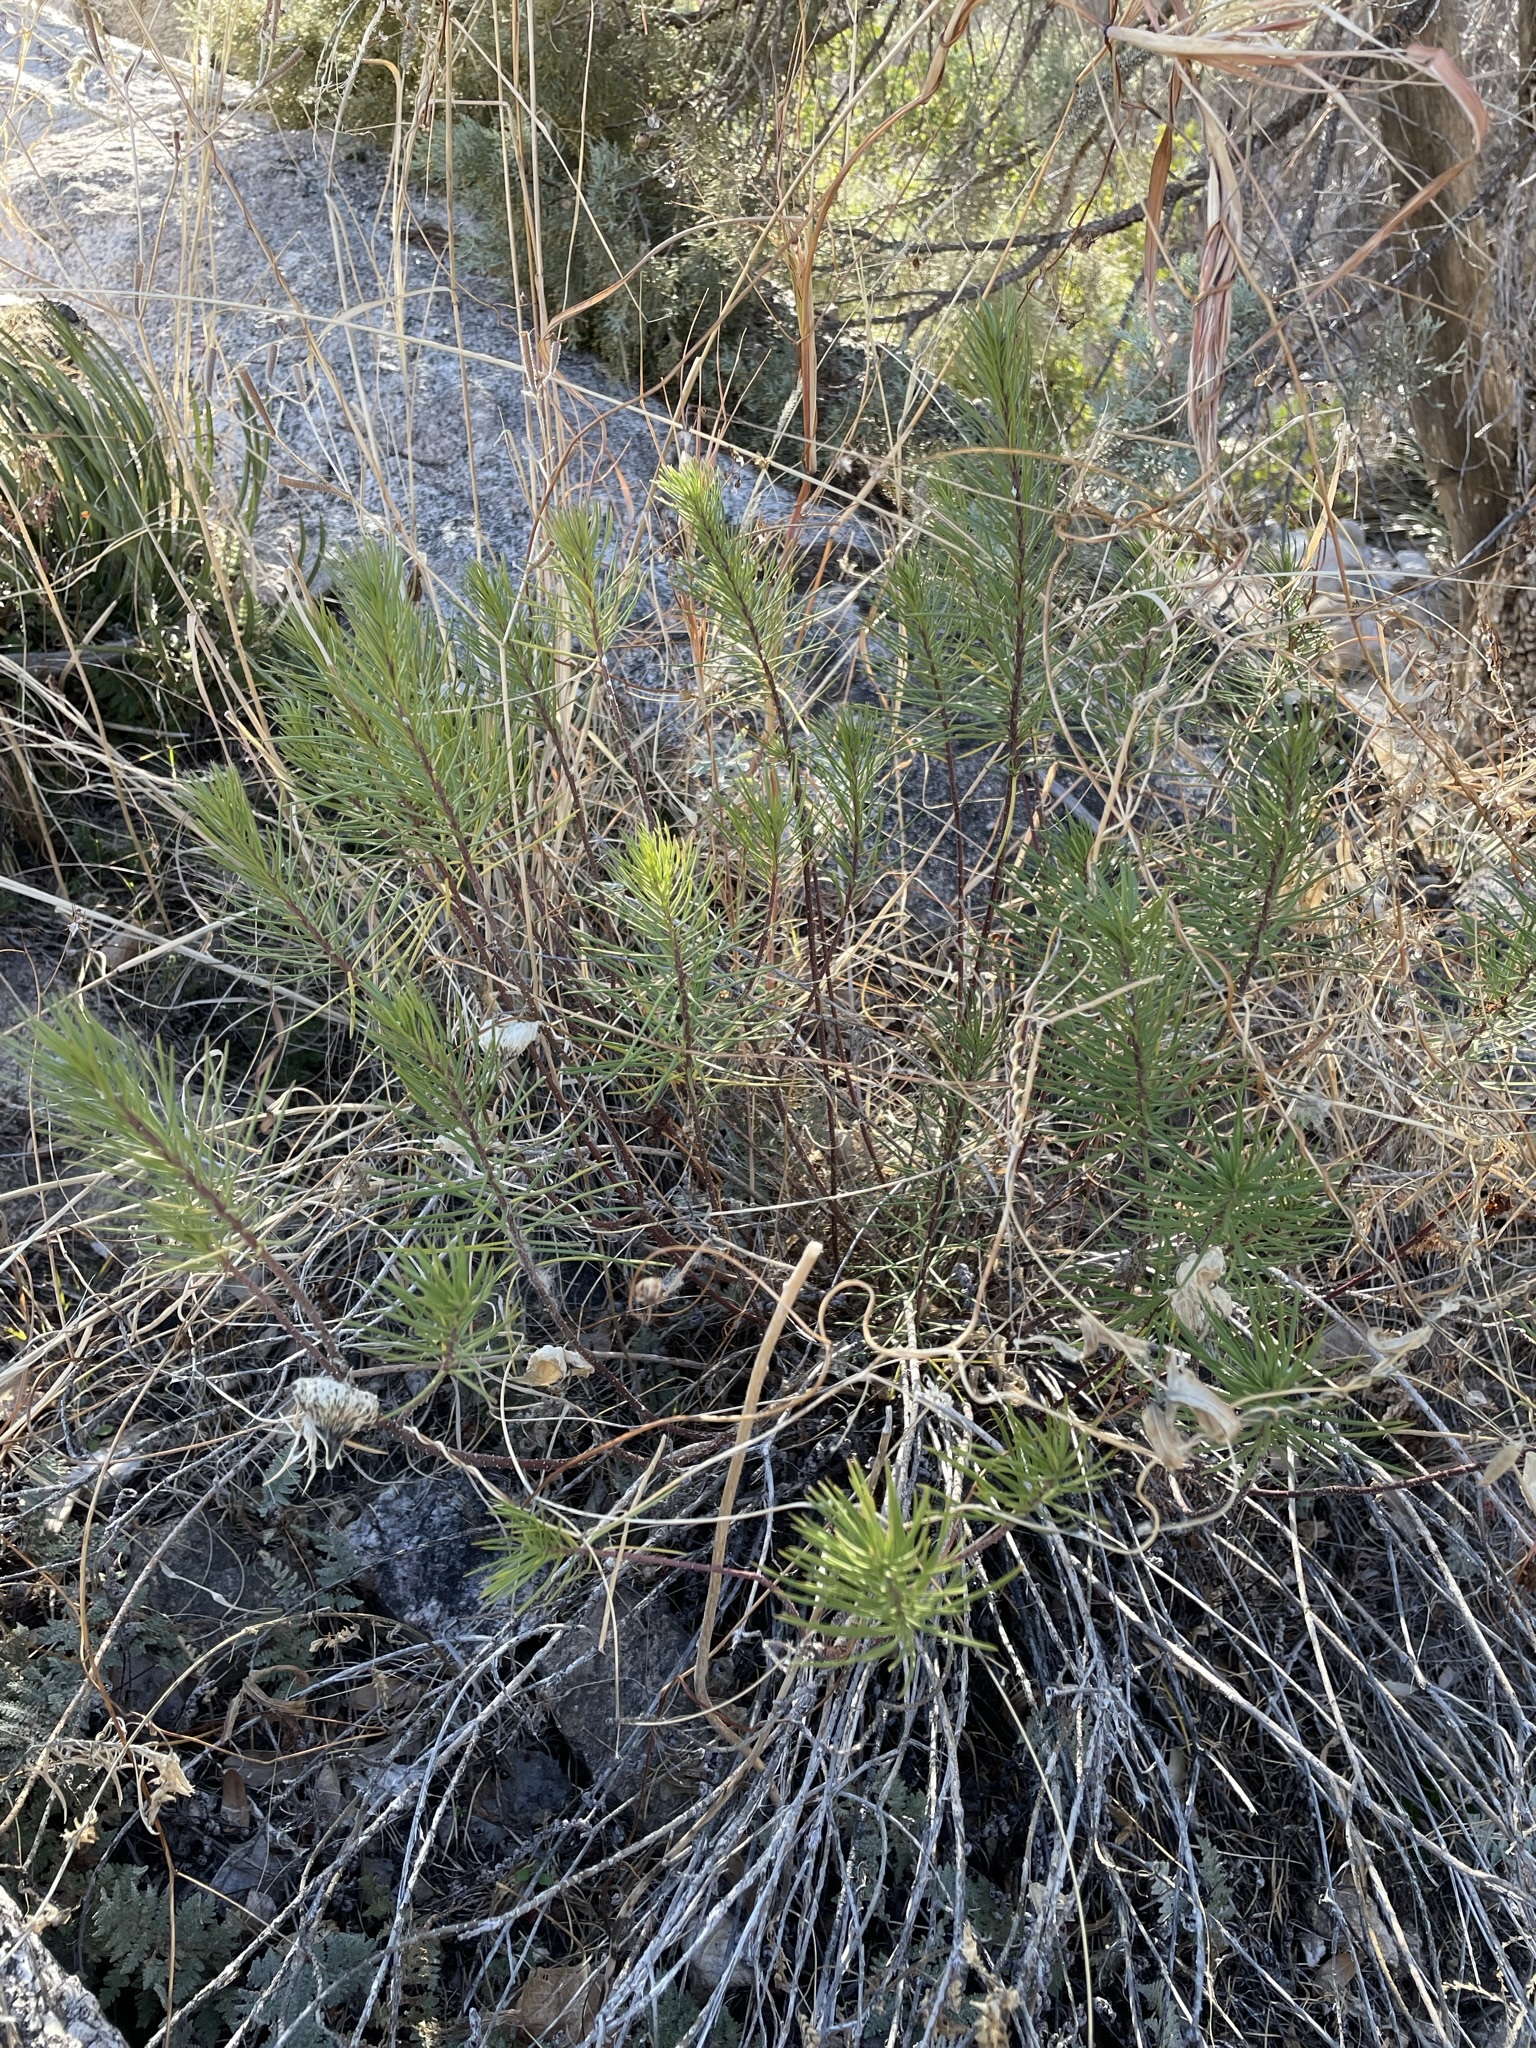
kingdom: Plantae
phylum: Tracheophyta
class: Magnoliopsida
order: Gentianales
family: Apocynaceae
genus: Asclepias
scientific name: Asclepias linaria
